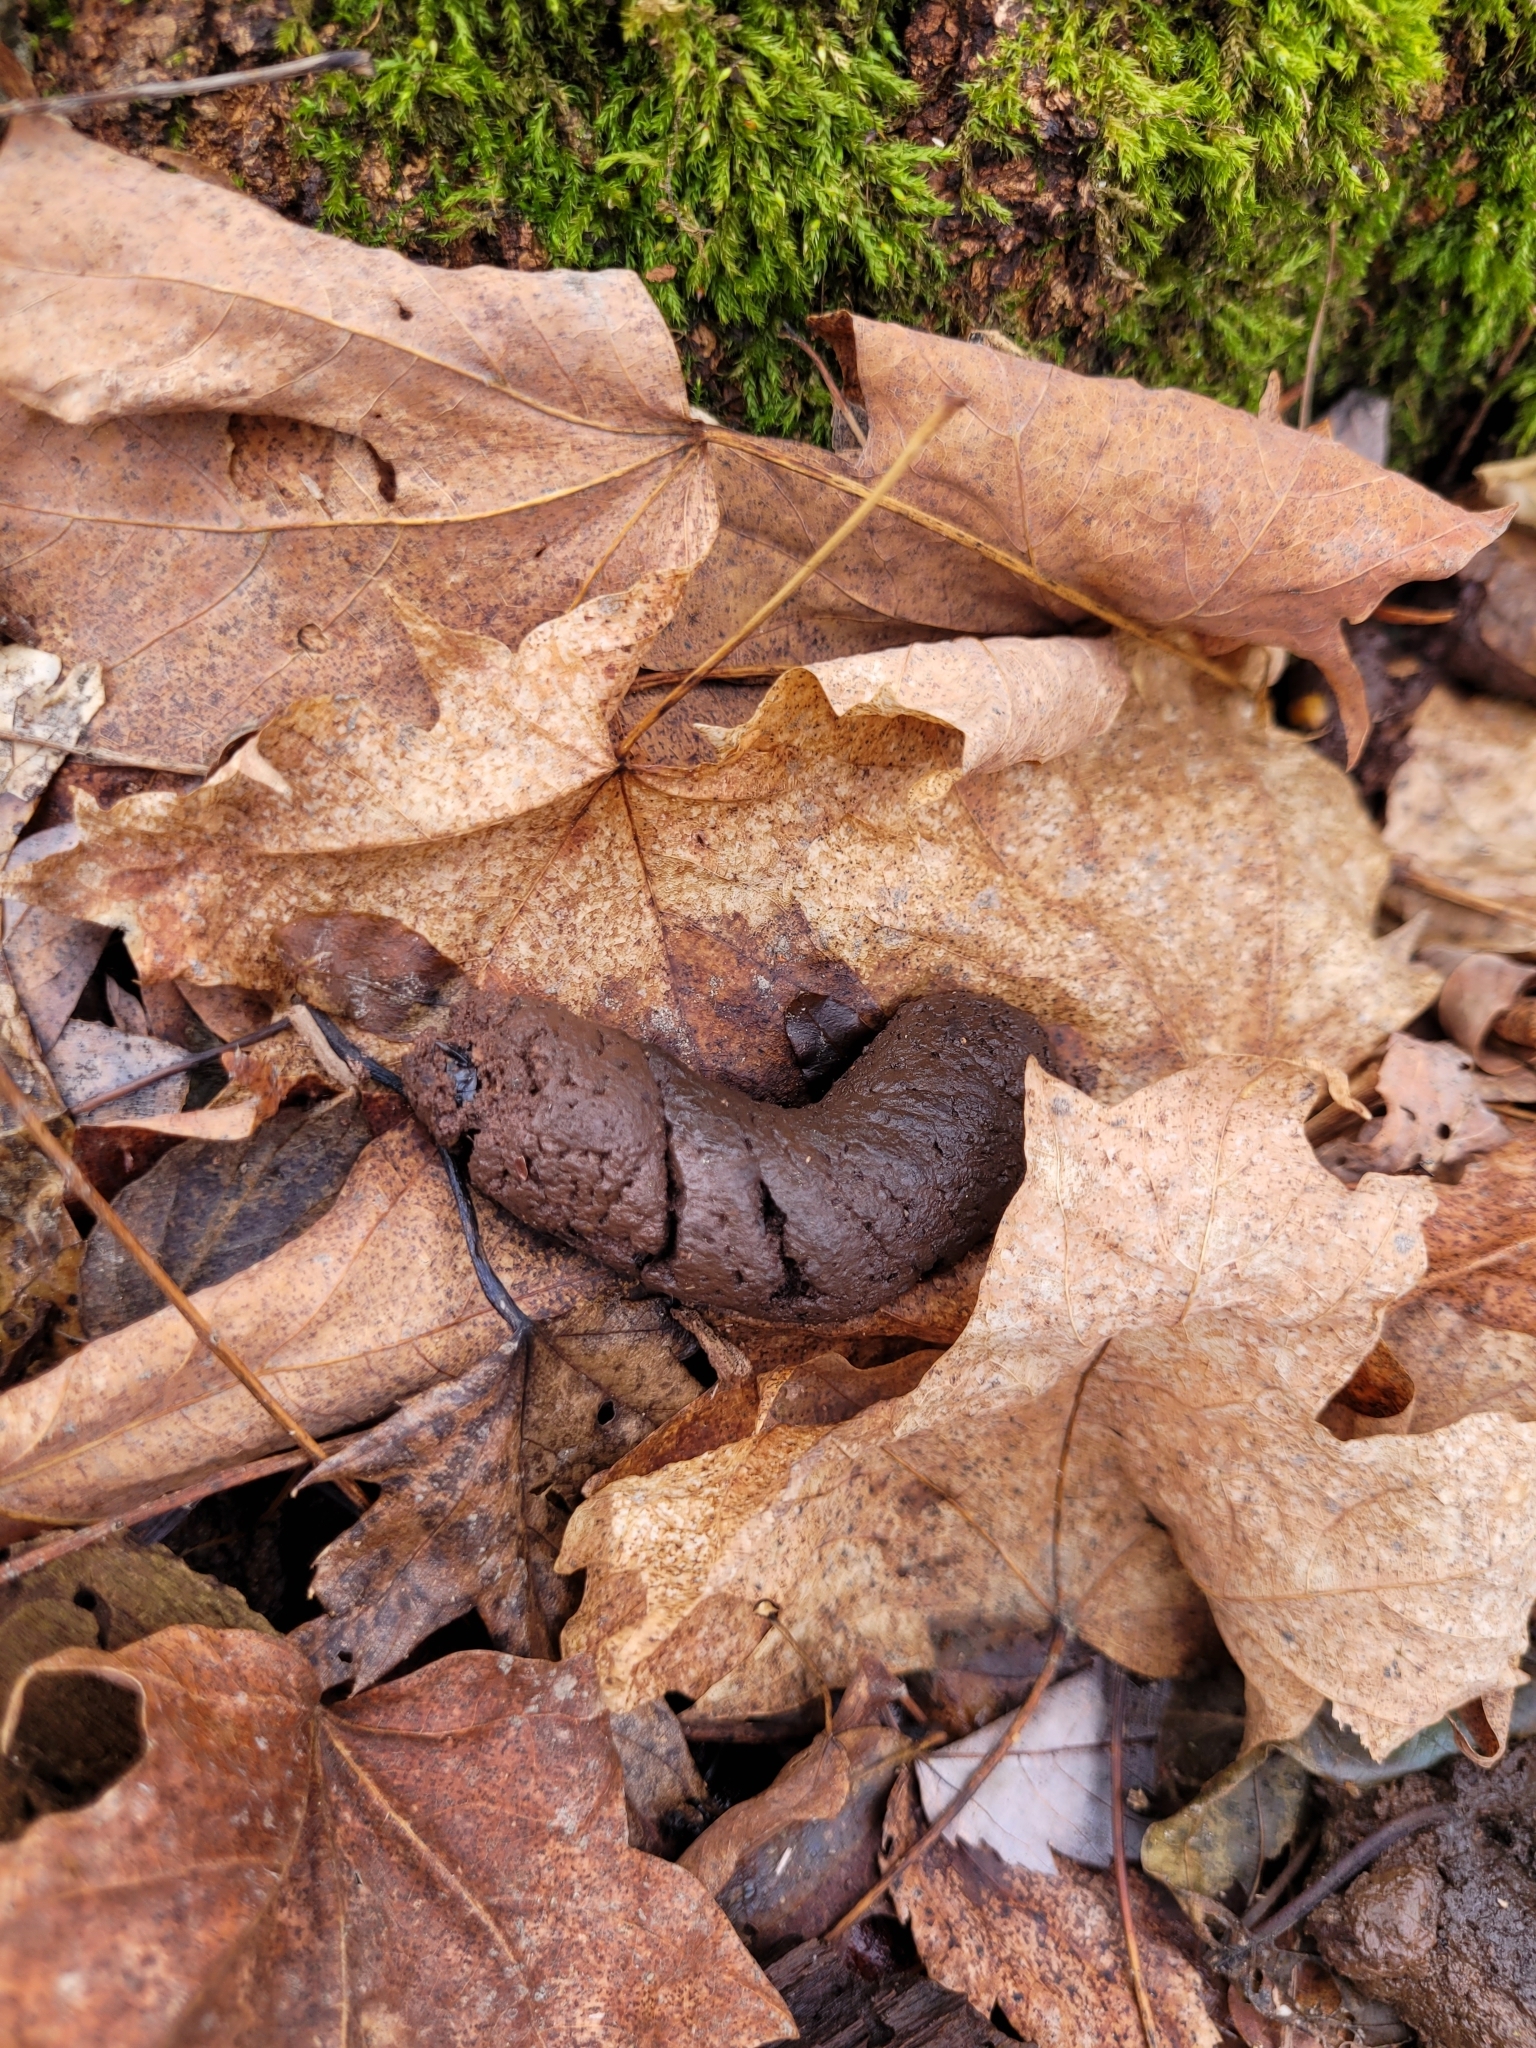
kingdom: Animalia
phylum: Chordata
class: Mammalia
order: Didelphimorphia
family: Didelphidae
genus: Didelphis
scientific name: Didelphis virginiana
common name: Virginia opossum
